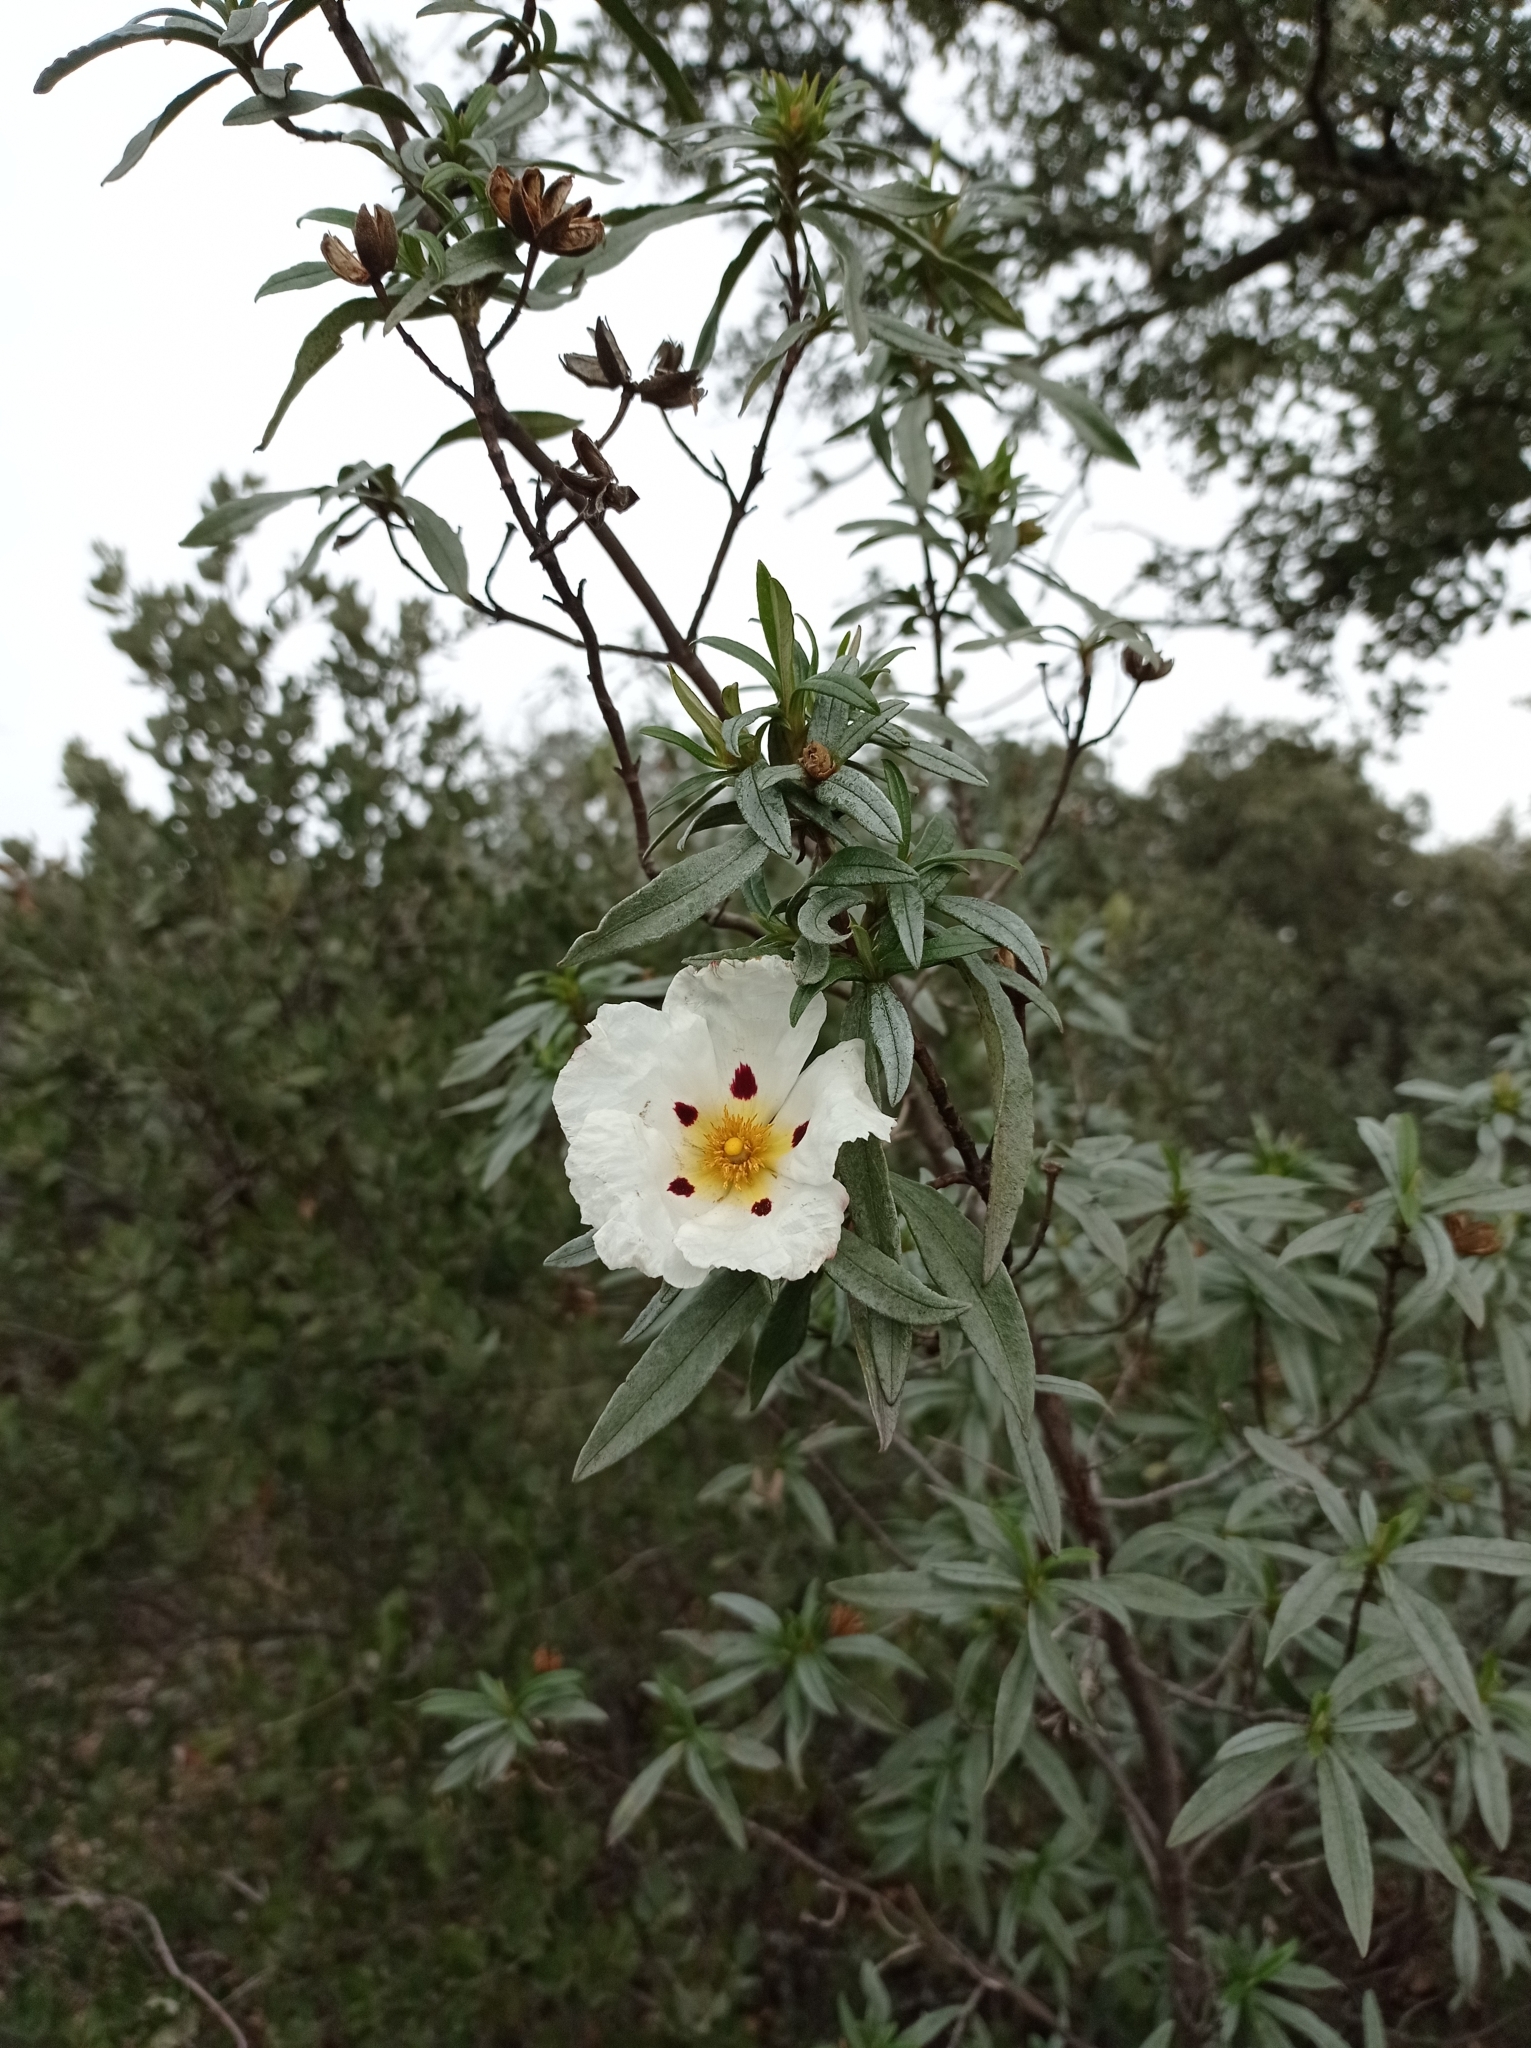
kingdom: Plantae
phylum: Tracheophyta
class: Magnoliopsida
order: Malvales
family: Cistaceae
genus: Cistus
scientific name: Cistus ladanifer
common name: Common gum cistus
